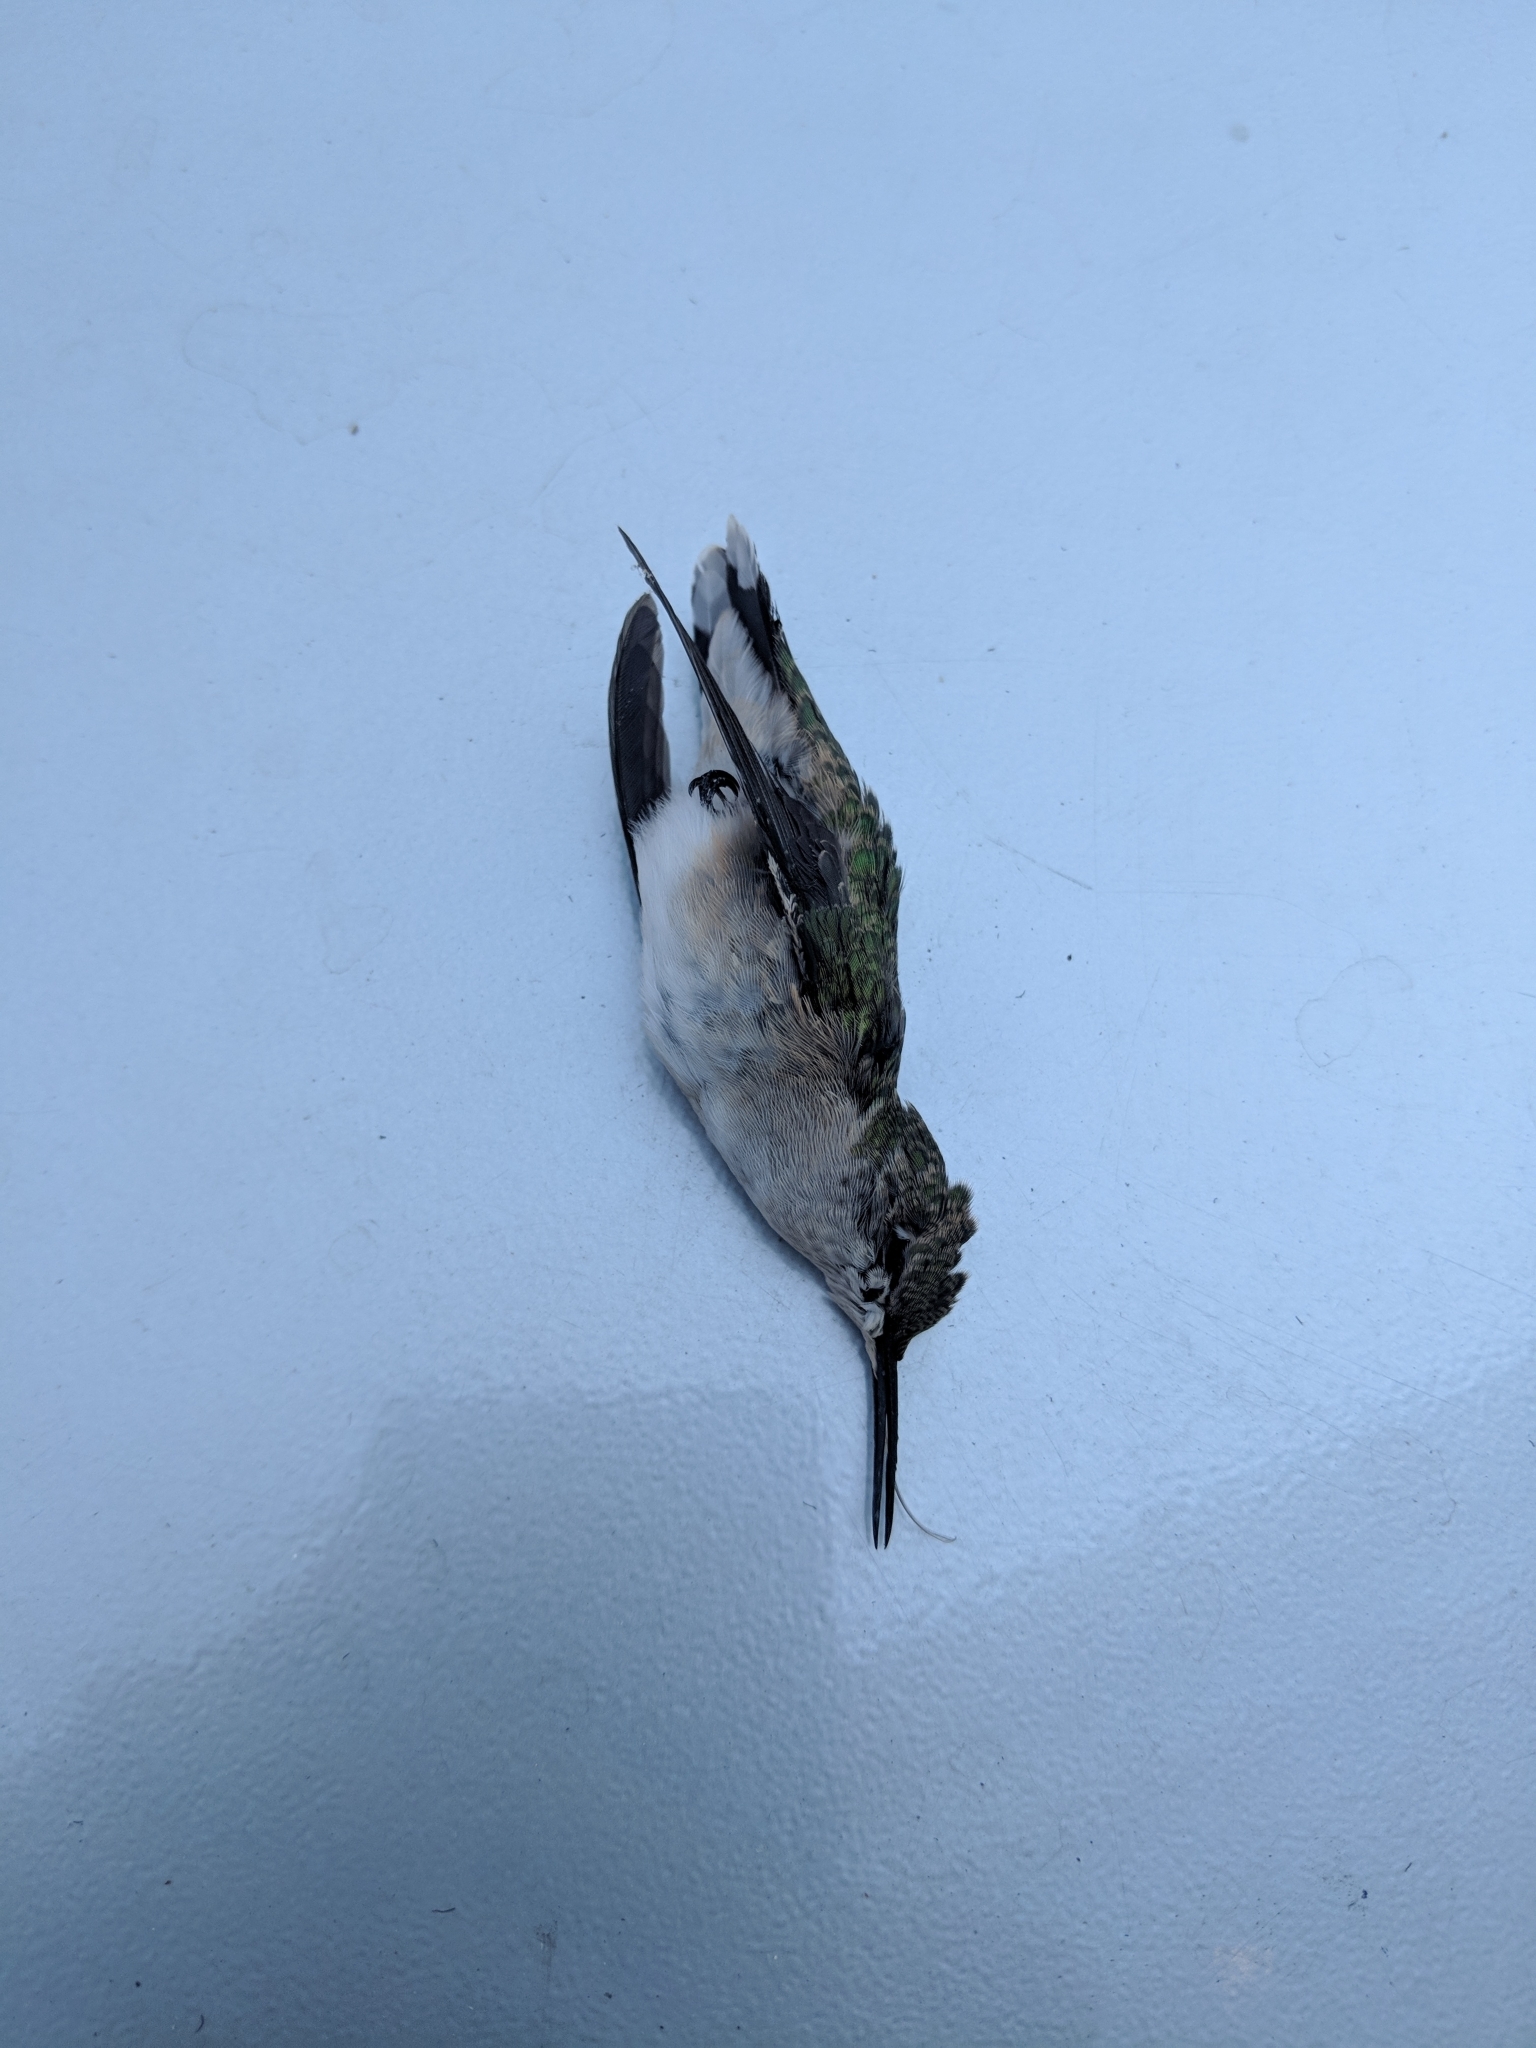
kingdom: Animalia
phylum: Chordata
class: Aves
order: Apodiformes
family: Trochilidae
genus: Archilochus
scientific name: Archilochus colubris
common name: Ruby-throated hummingbird
